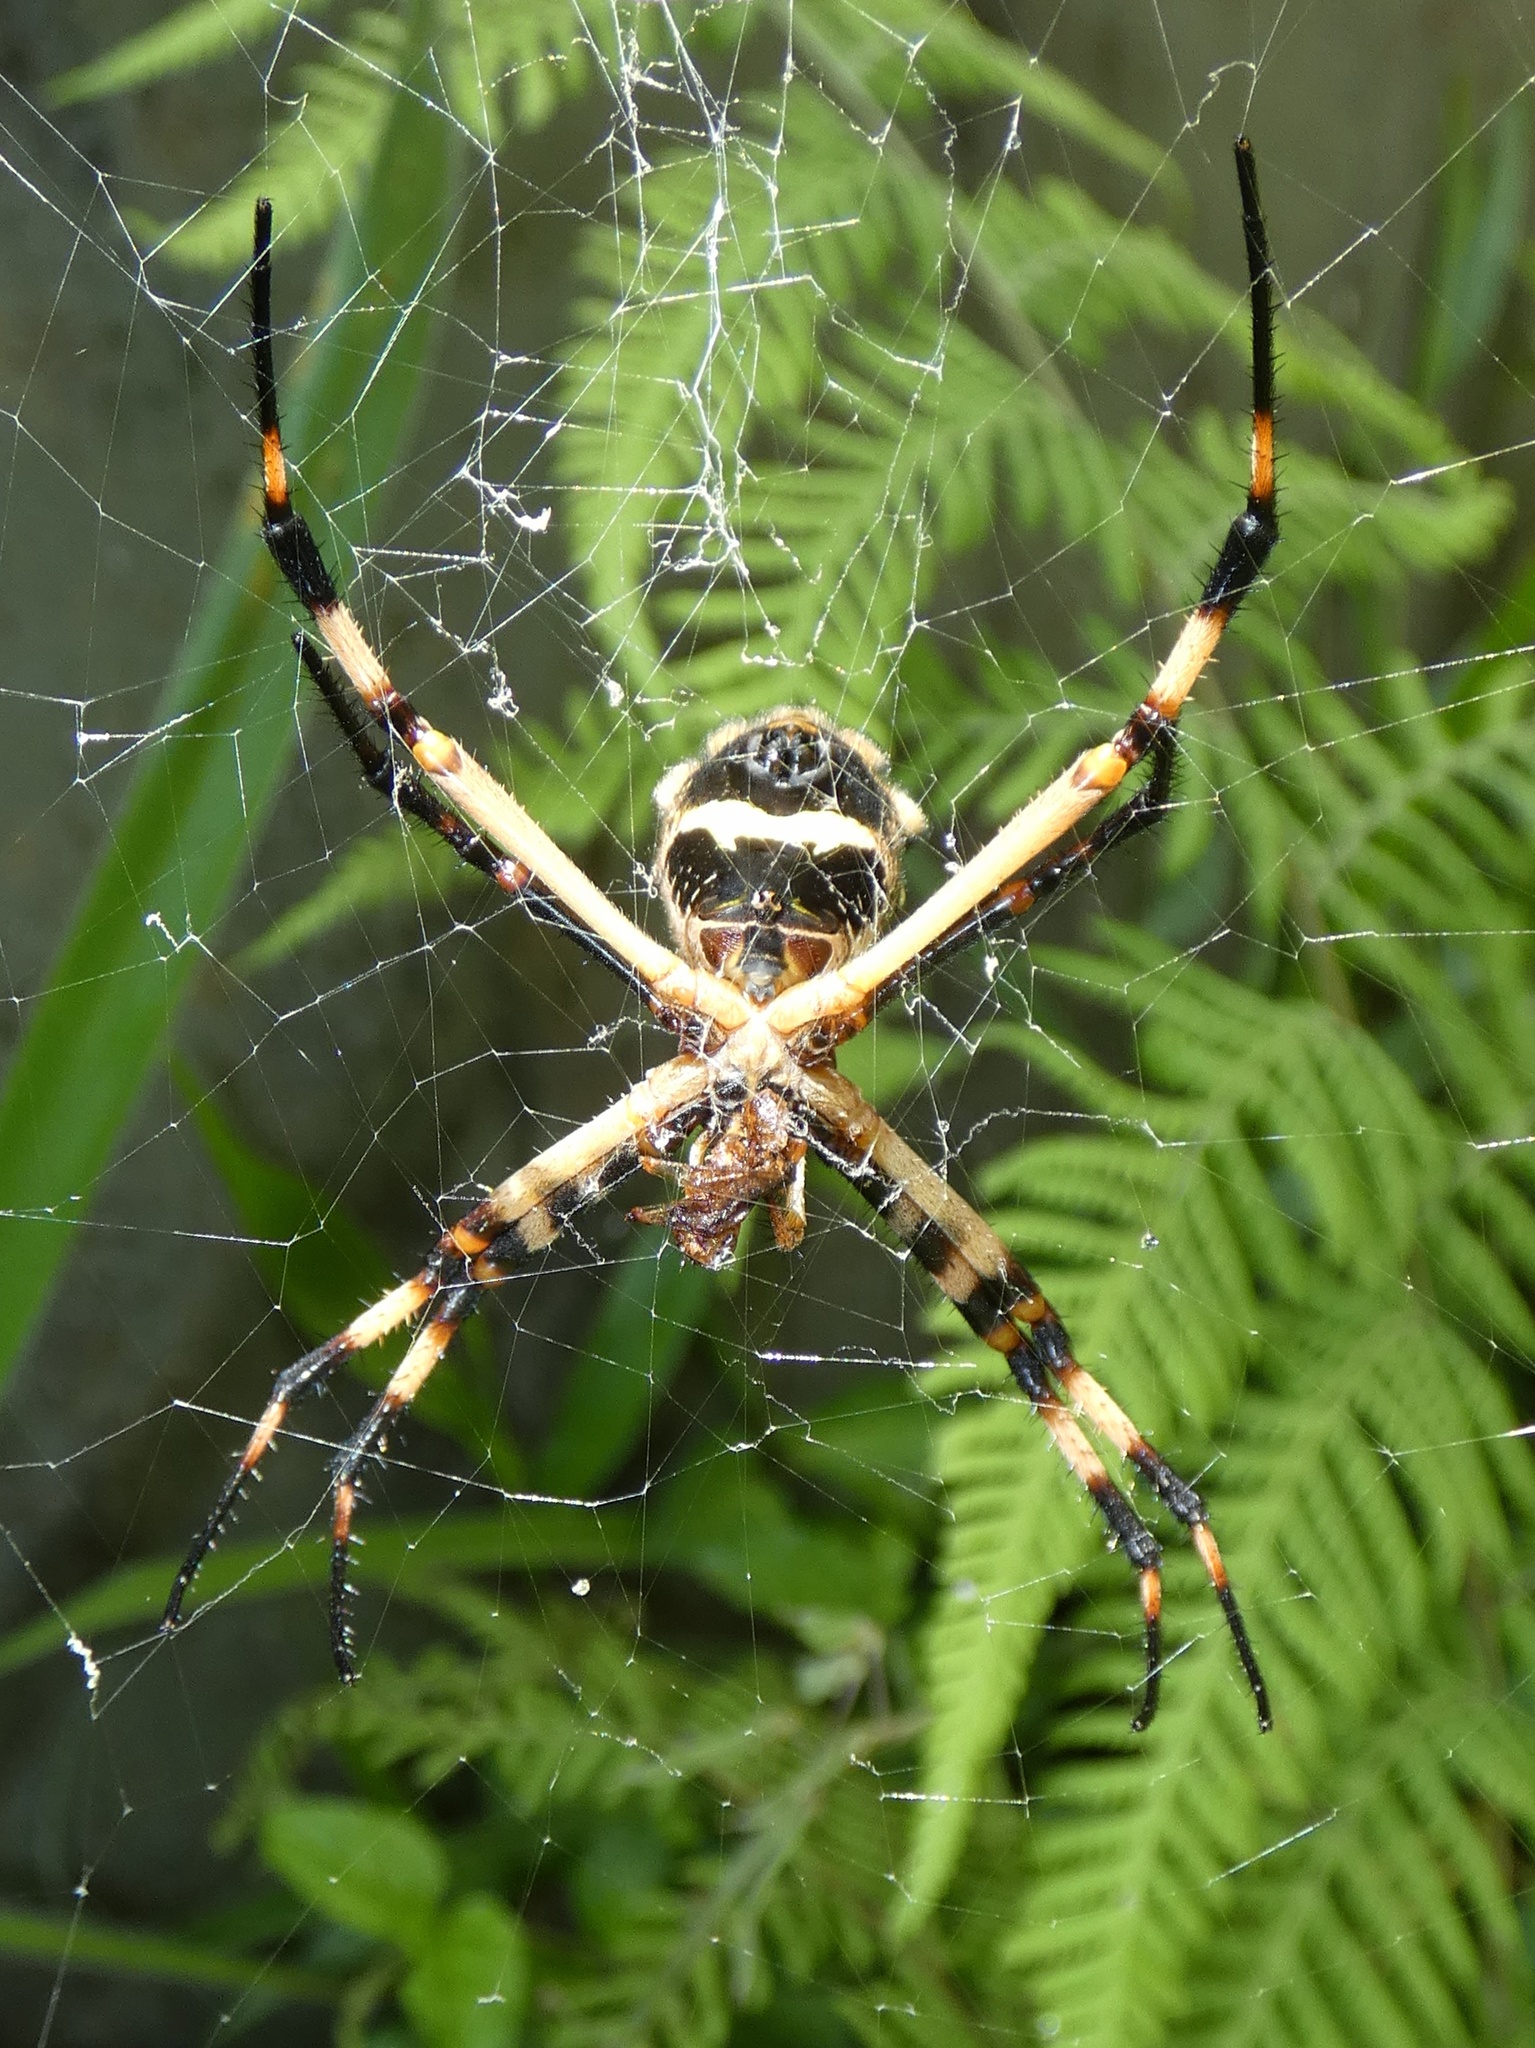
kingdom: Animalia
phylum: Arthropoda
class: Arachnida
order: Araneae
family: Araneidae
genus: Argiope
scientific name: Argiope argentata
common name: Orb weavers
